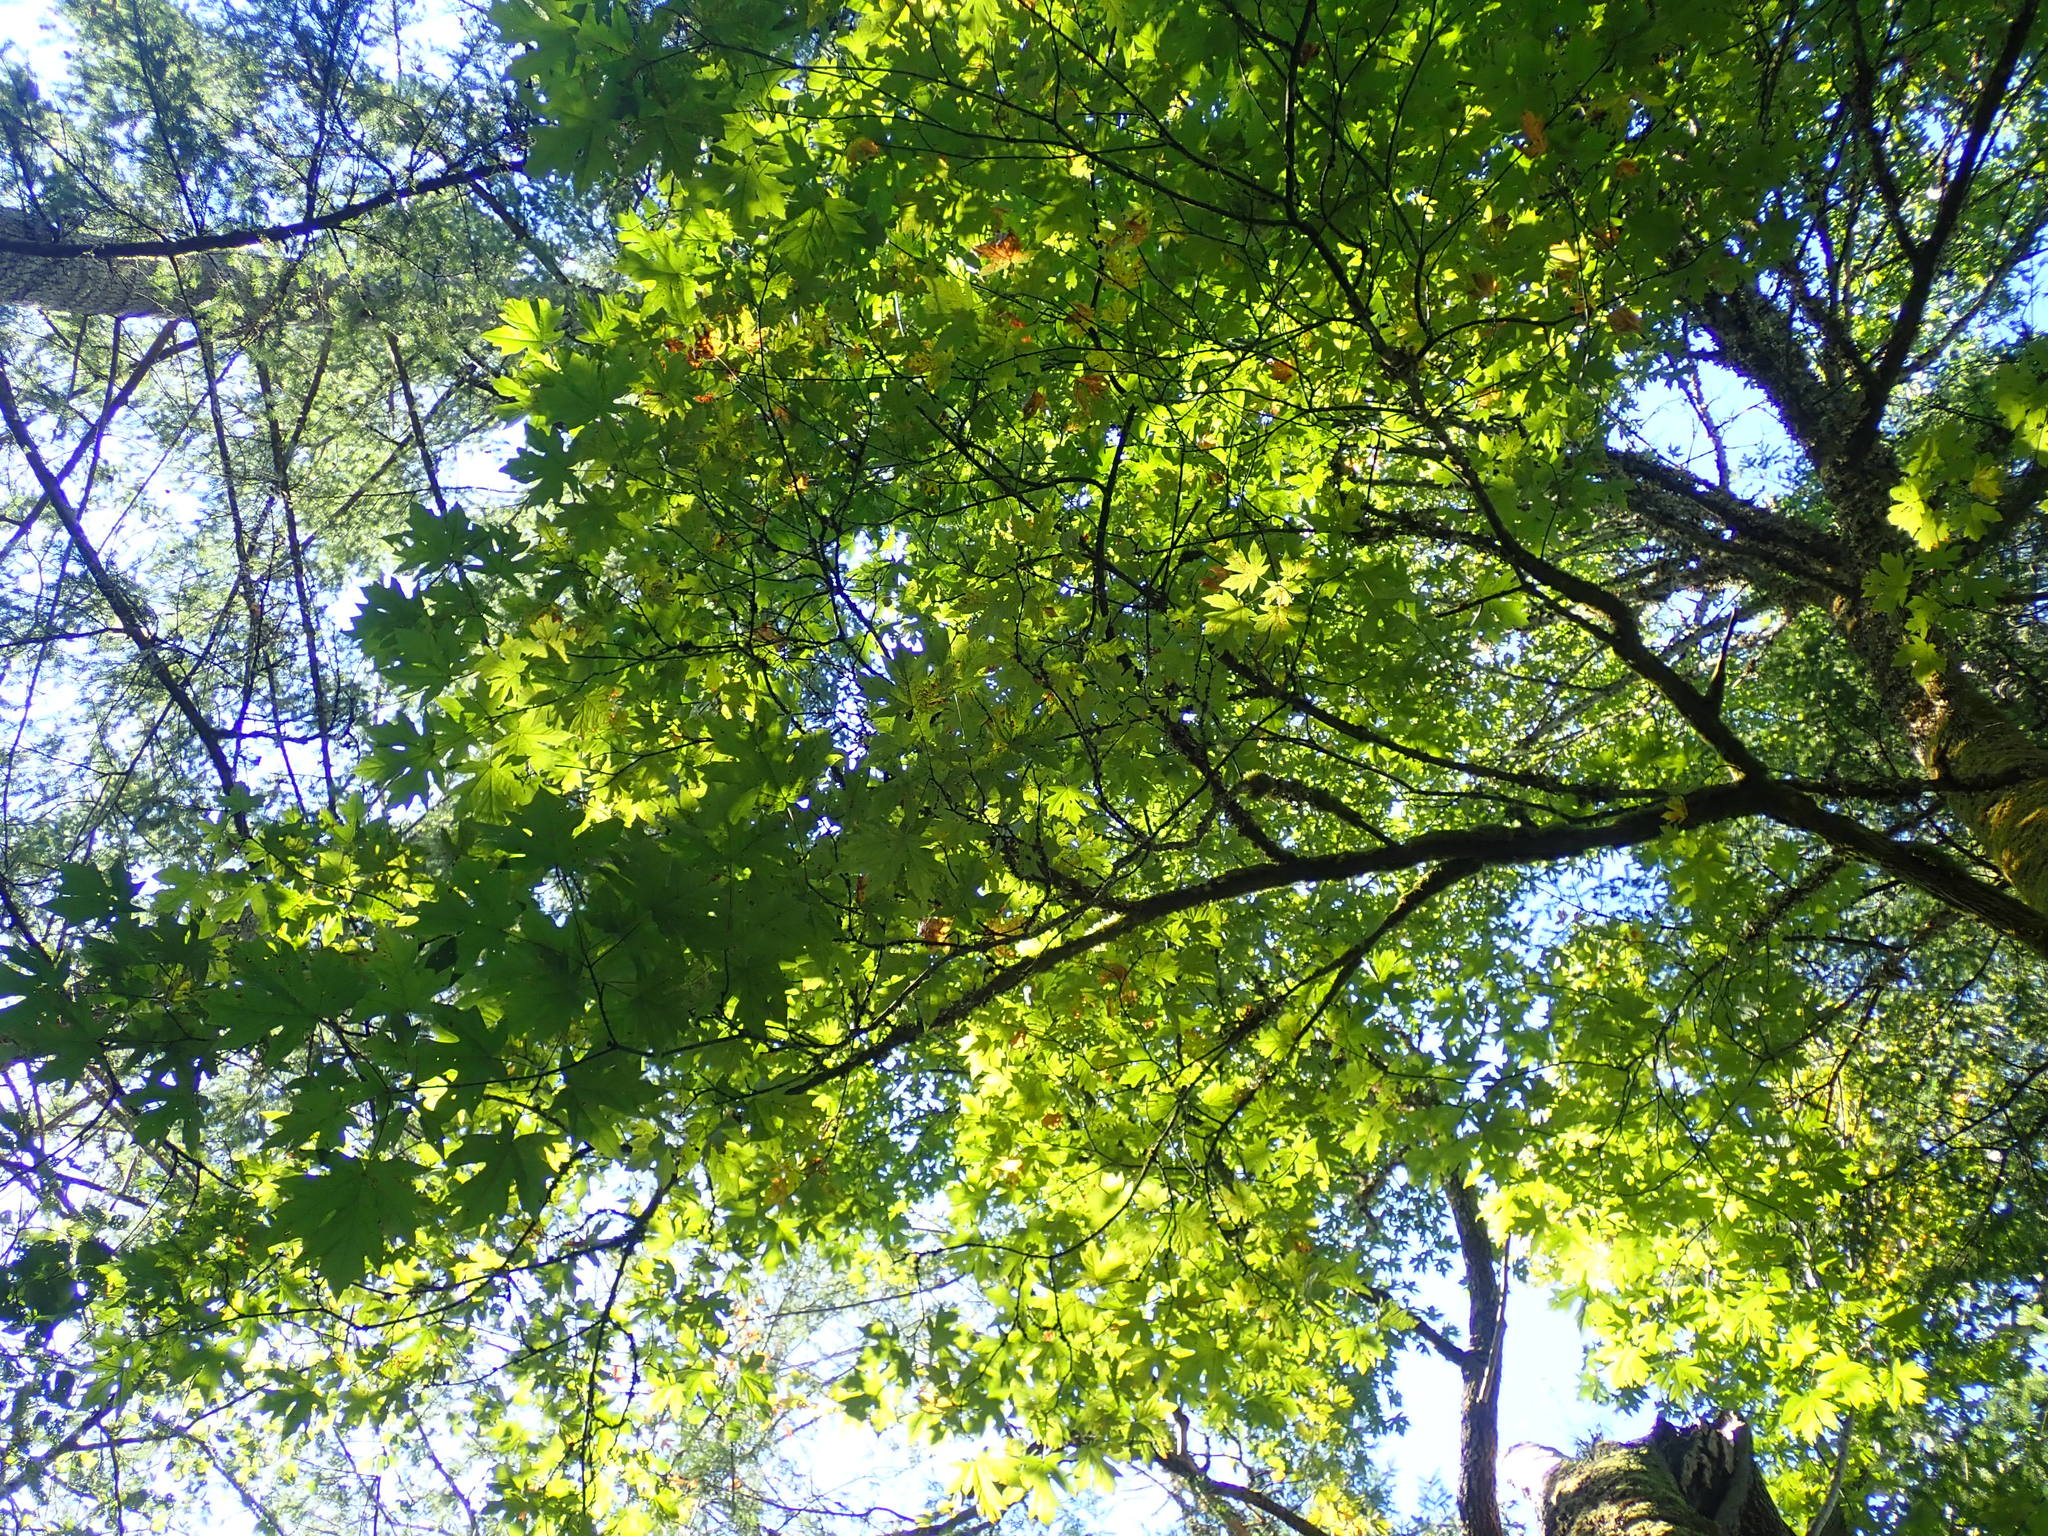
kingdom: Plantae
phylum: Tracheophyta
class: Magnoliopsida
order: Sapindales
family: Sapindaceae
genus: Acer
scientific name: Acer macrophyllum
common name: Oregon maple
